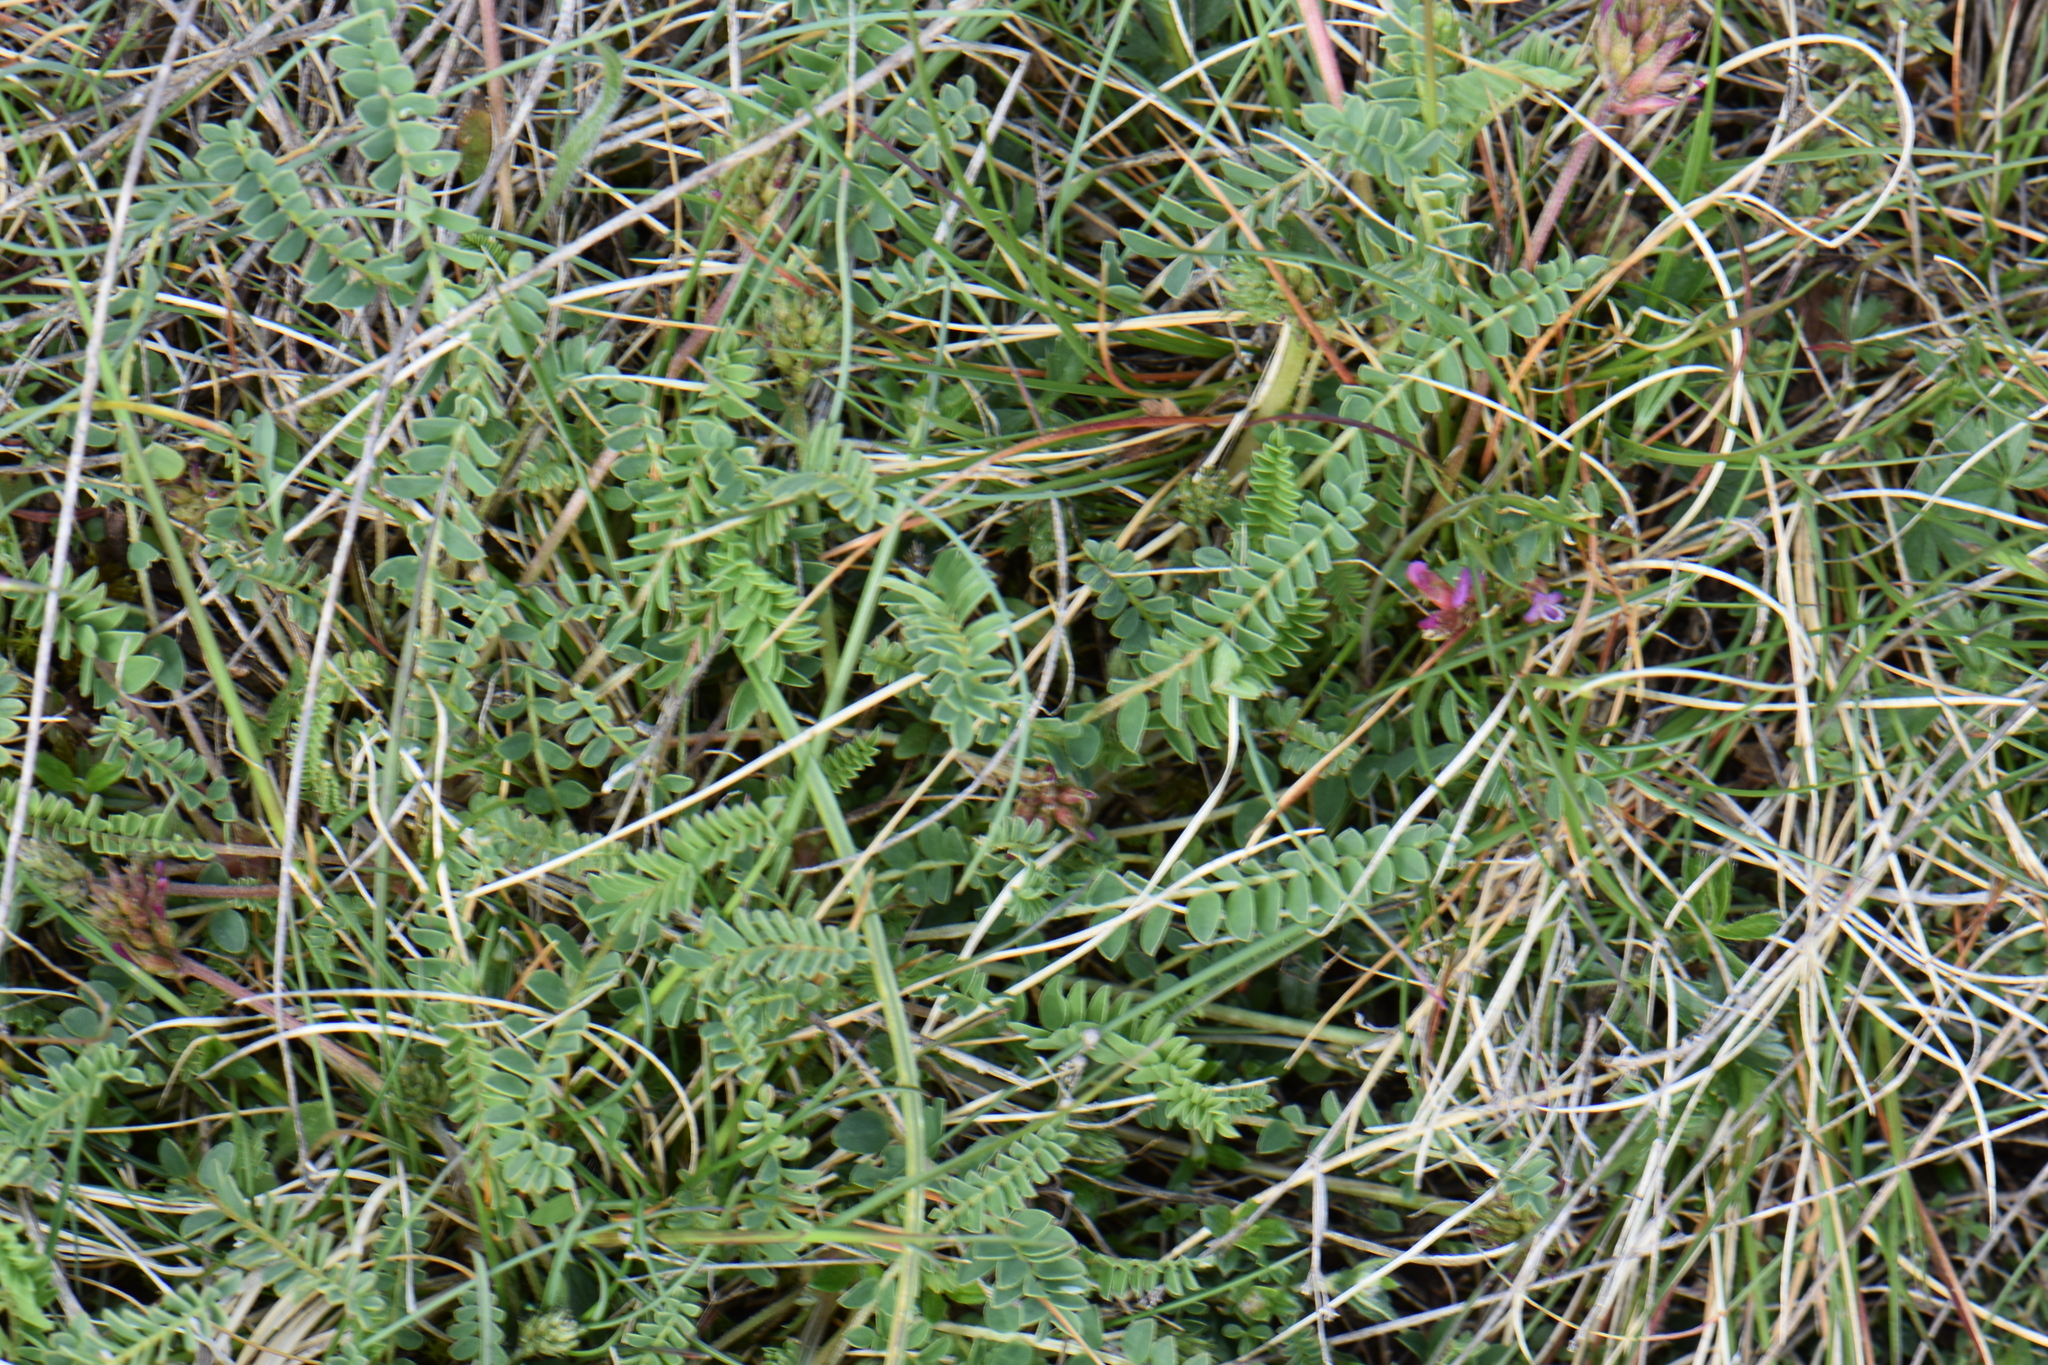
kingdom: Plantae
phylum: Tracheophyta
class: Magnoliopsida
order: Fabales
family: Fabaceae
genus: Astragalus
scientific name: Astragalus monspessulanus
